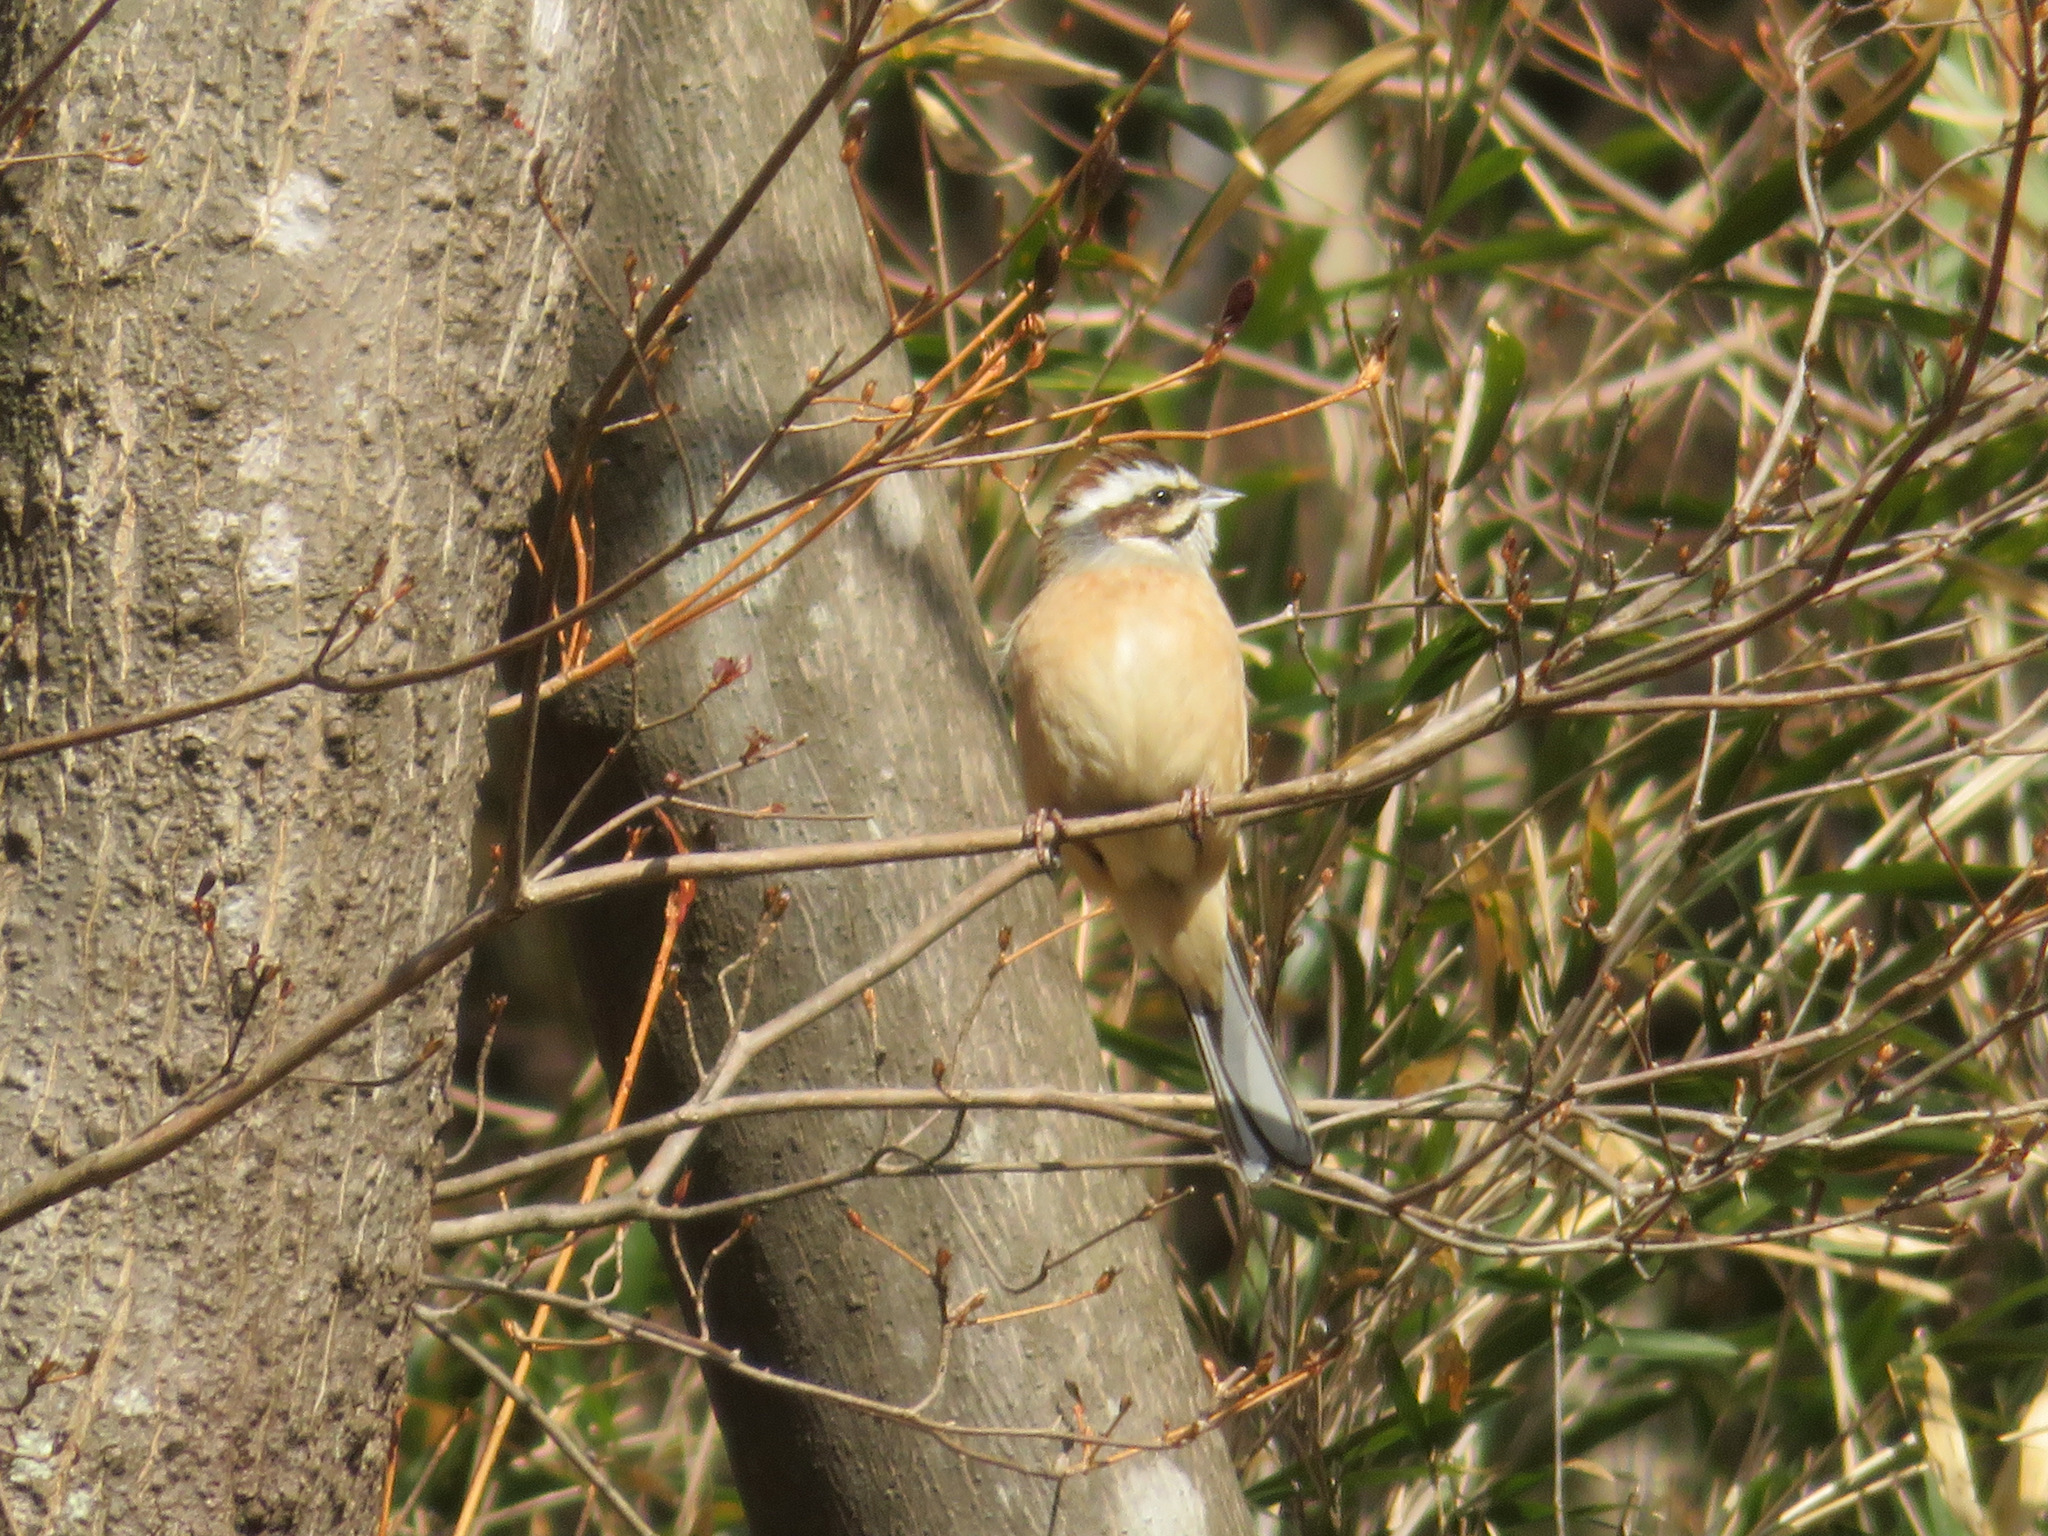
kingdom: Animalia
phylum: Chordata
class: Aves
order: Passeriformes
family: Emberizidae
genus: Emberiza
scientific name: Emberiza cioides
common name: Meadow bunting
